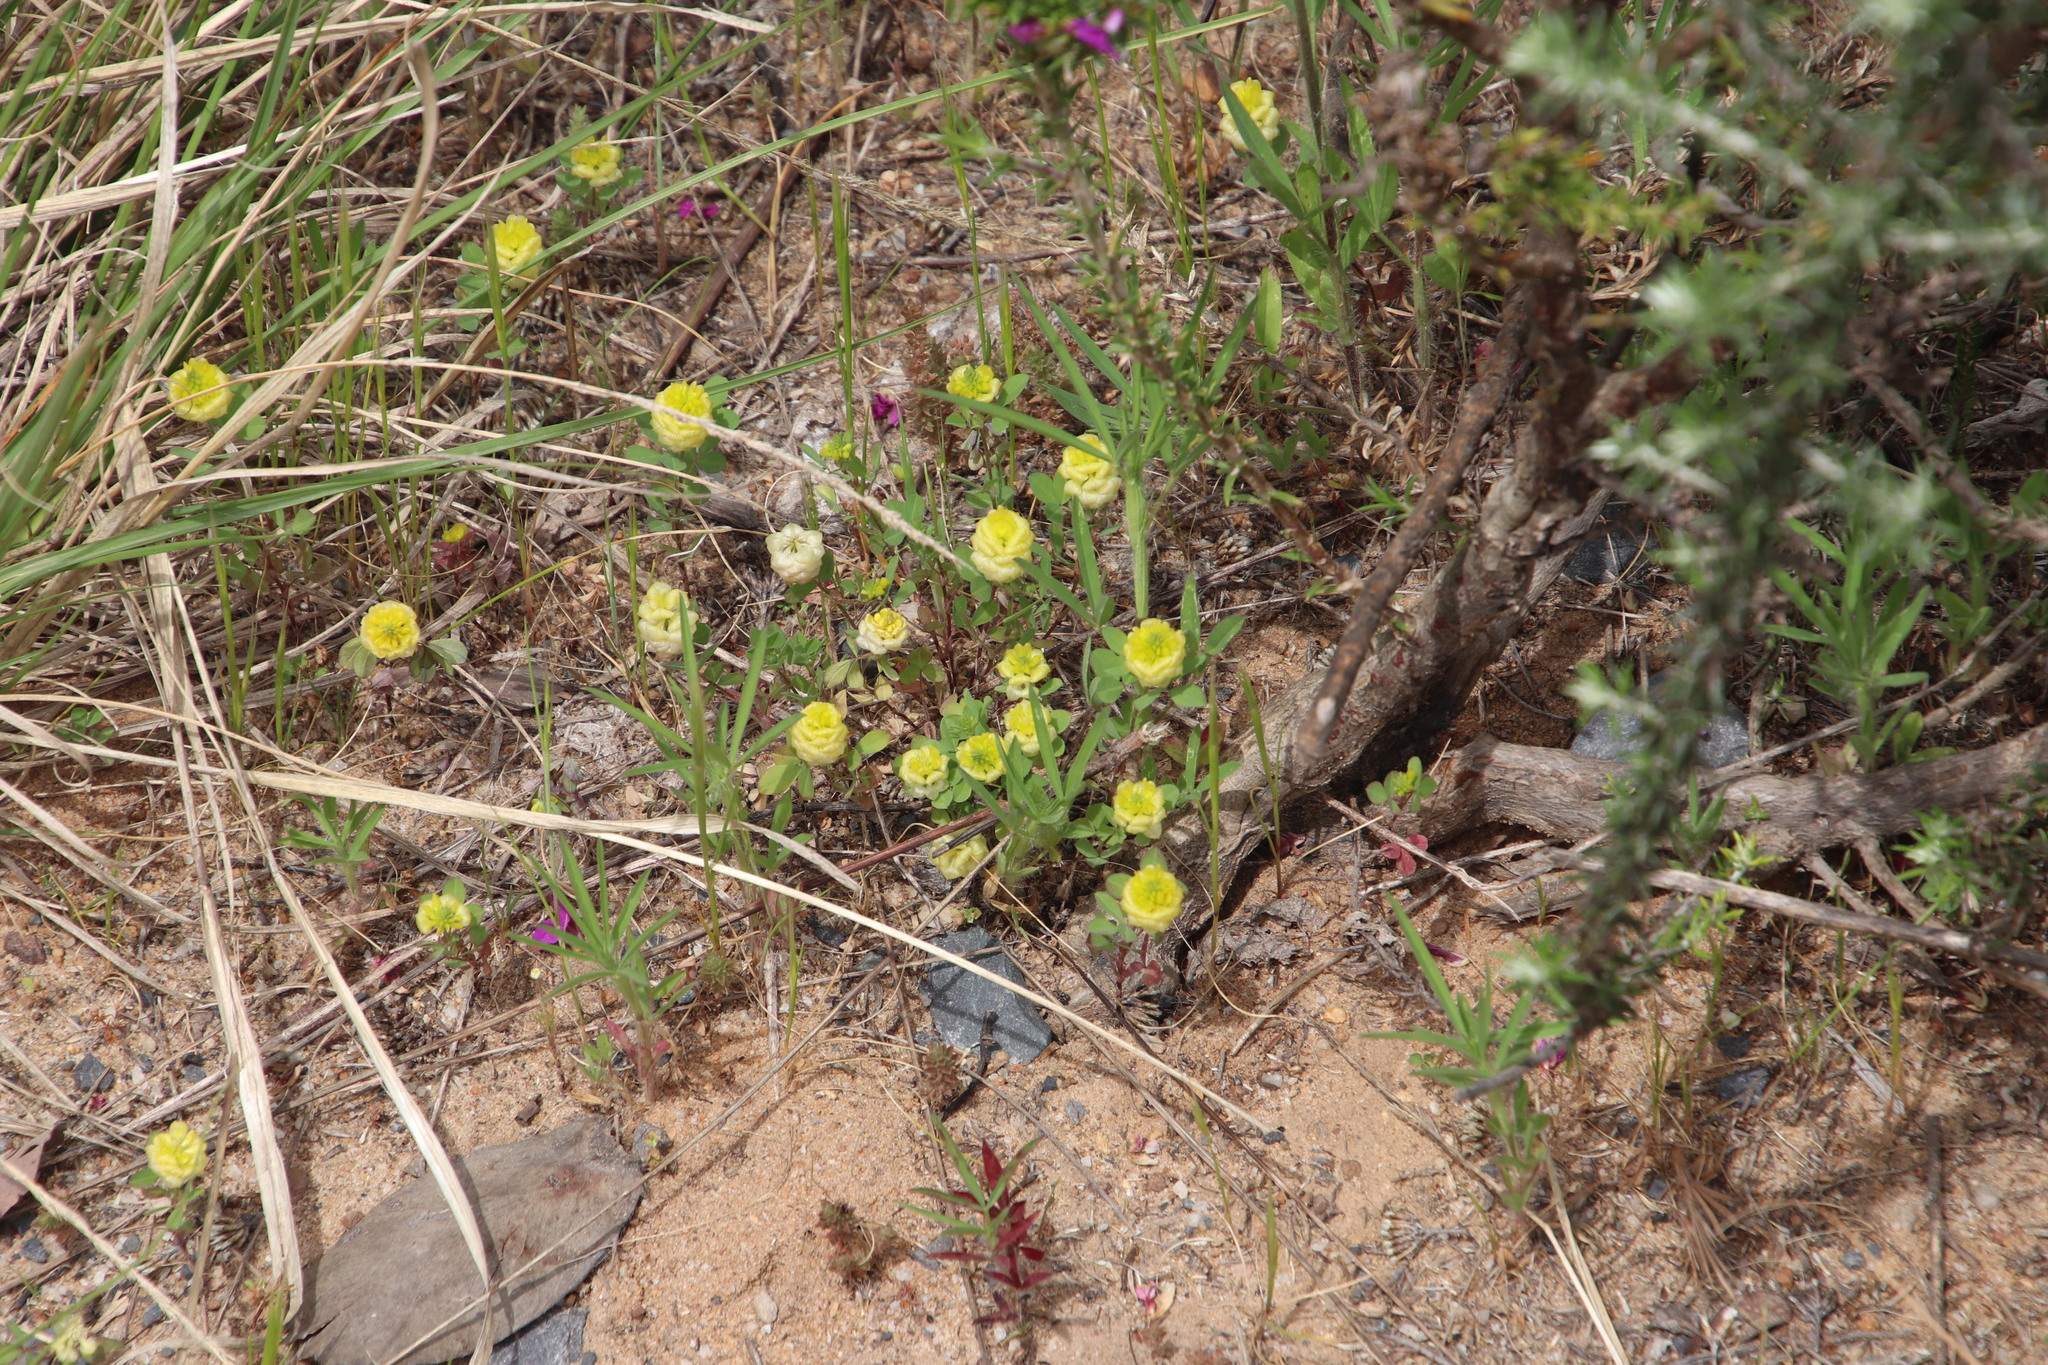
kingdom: Plantae
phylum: Tracheophyta
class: Magnoliopsida
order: Fabales
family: Fabaceae
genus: Trifolium
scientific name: Trifolium campestre
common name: Field clover
